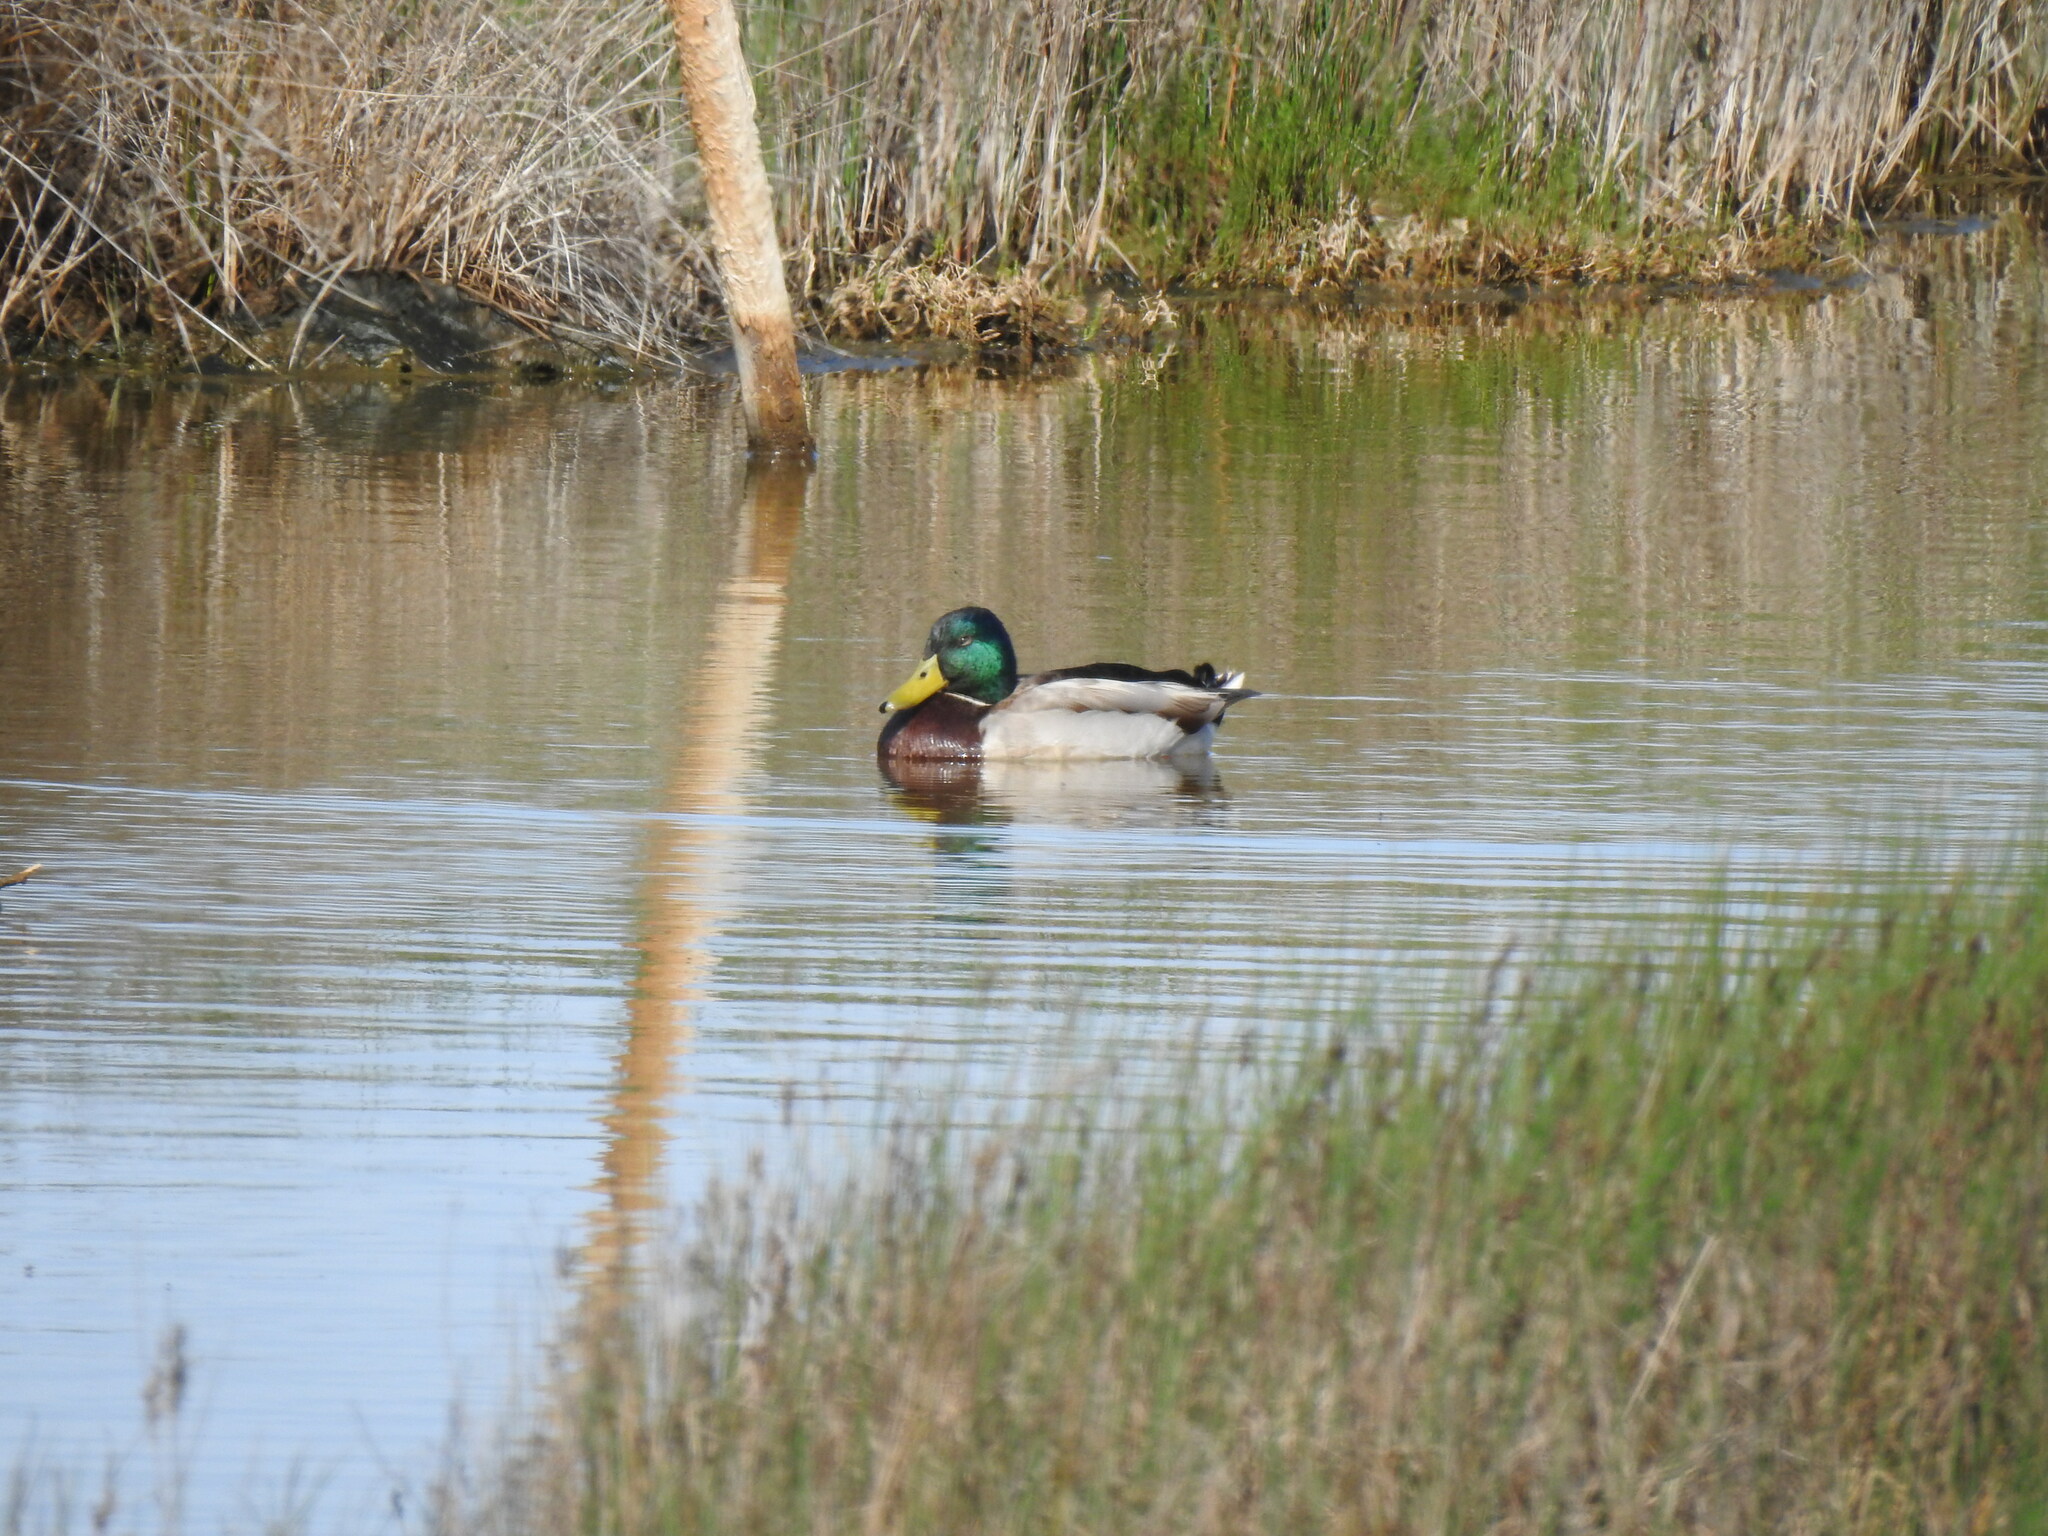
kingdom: Animalia
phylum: Chordata
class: Aves
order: Anseriformes
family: Anatidae
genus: Anas
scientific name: Anas platyrhynchos
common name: Mallard
